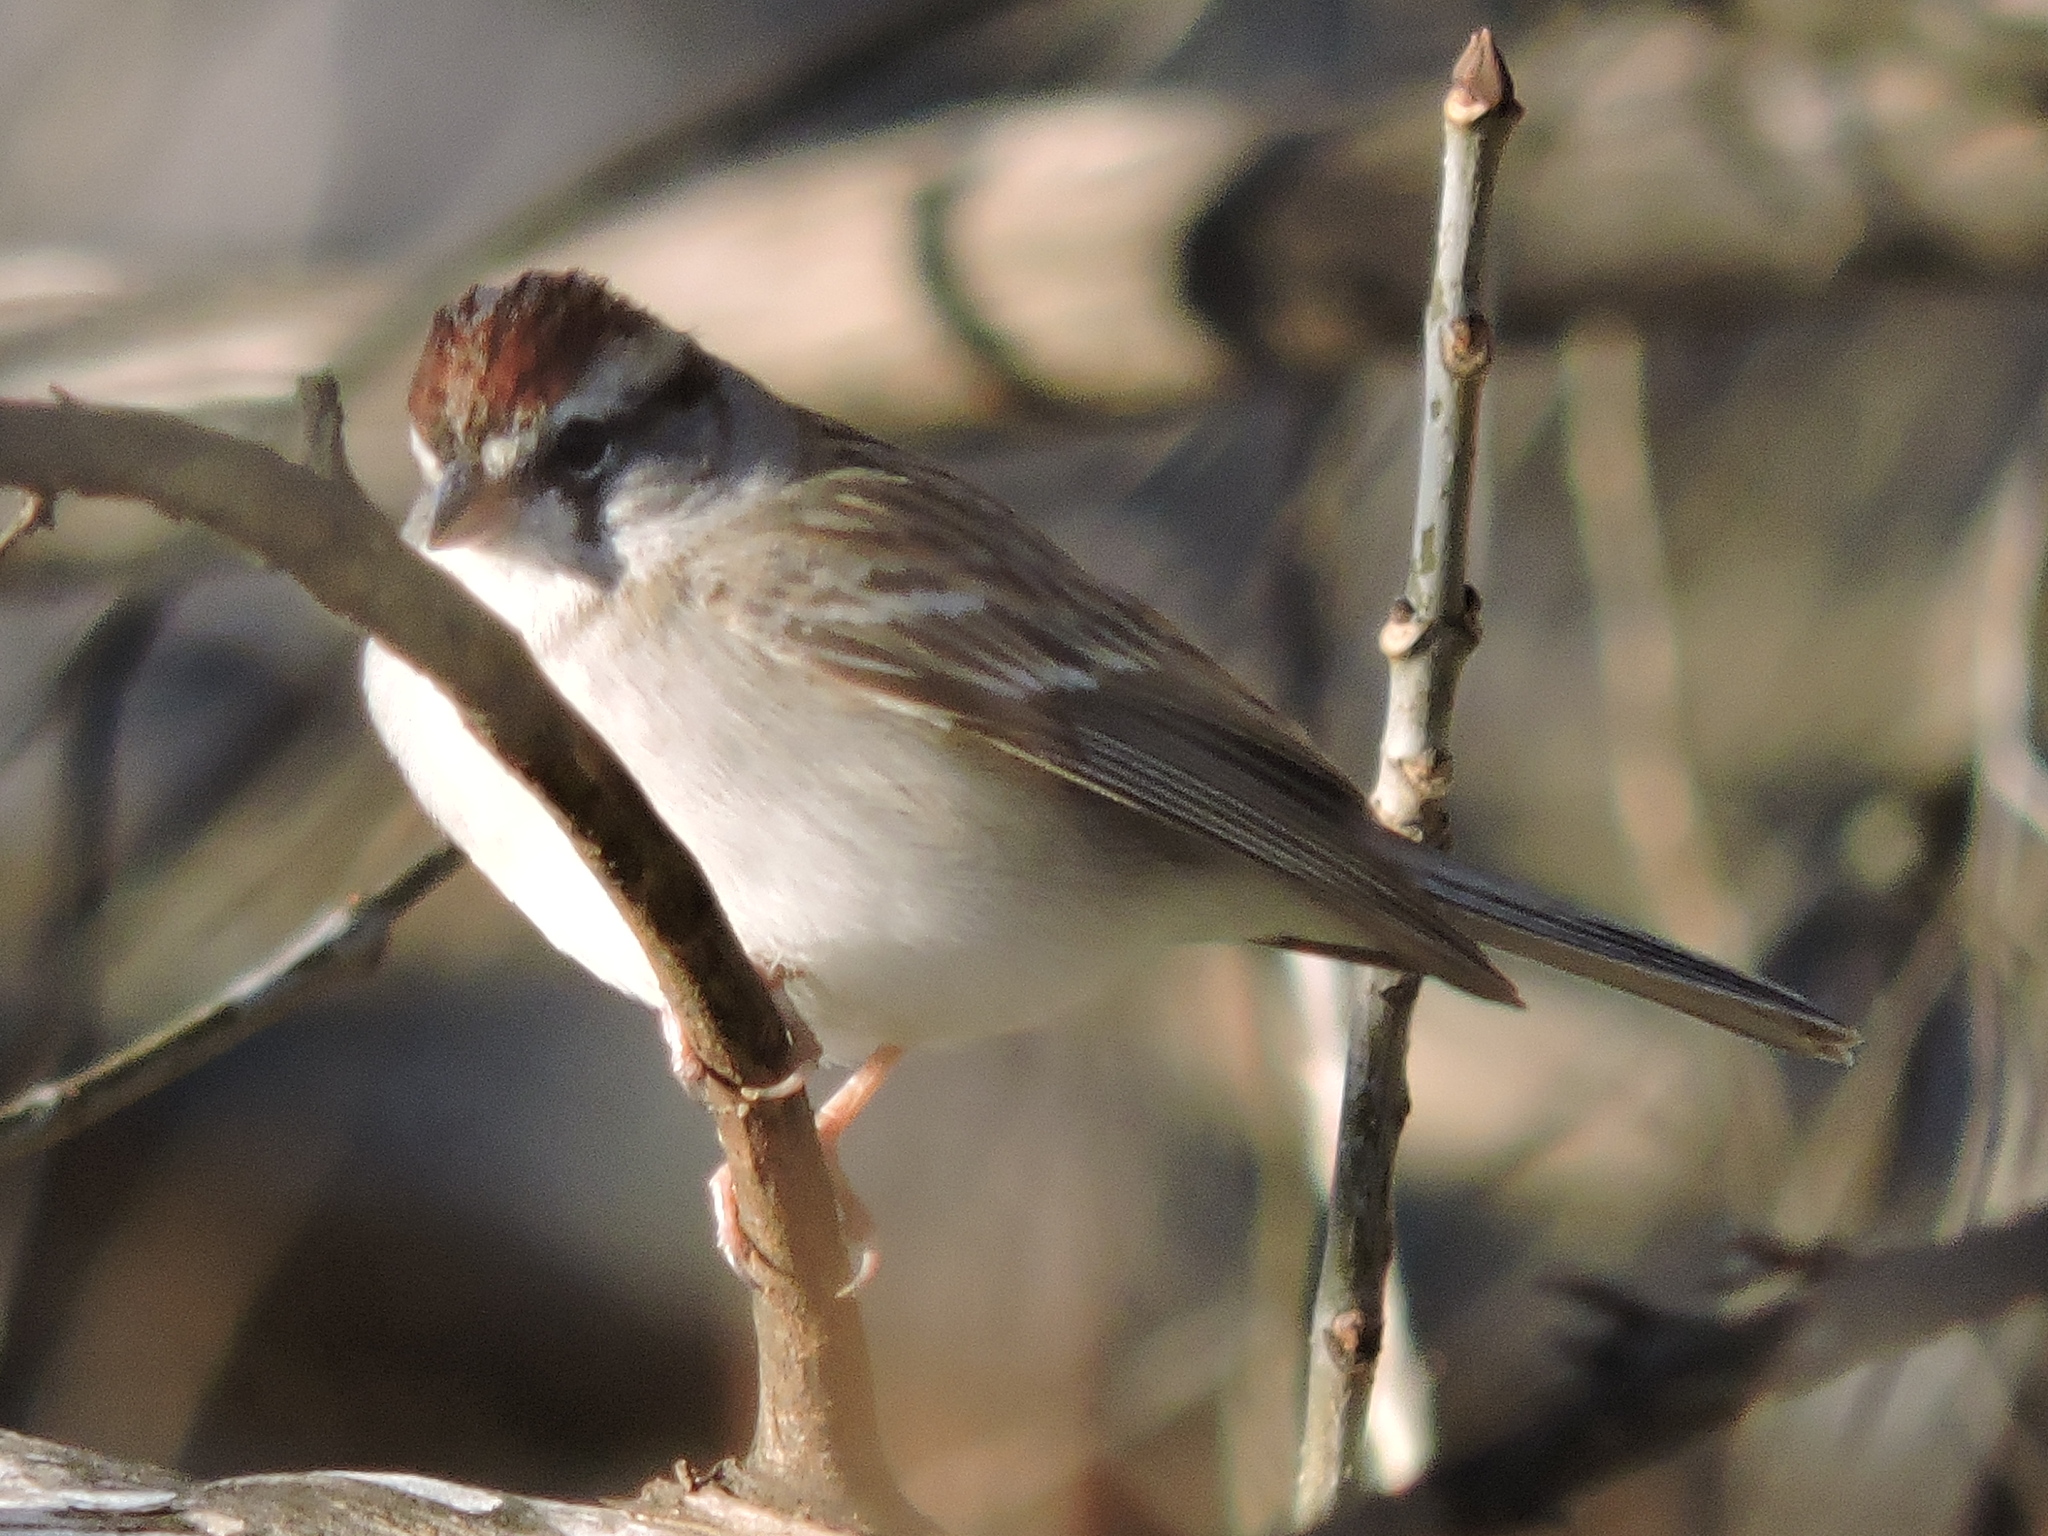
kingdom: Animalia
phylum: Chordata
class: Aves
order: Passeriformes
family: Passerellidae
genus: Spizella
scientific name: Spizella passerina
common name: Chipping sparrow
